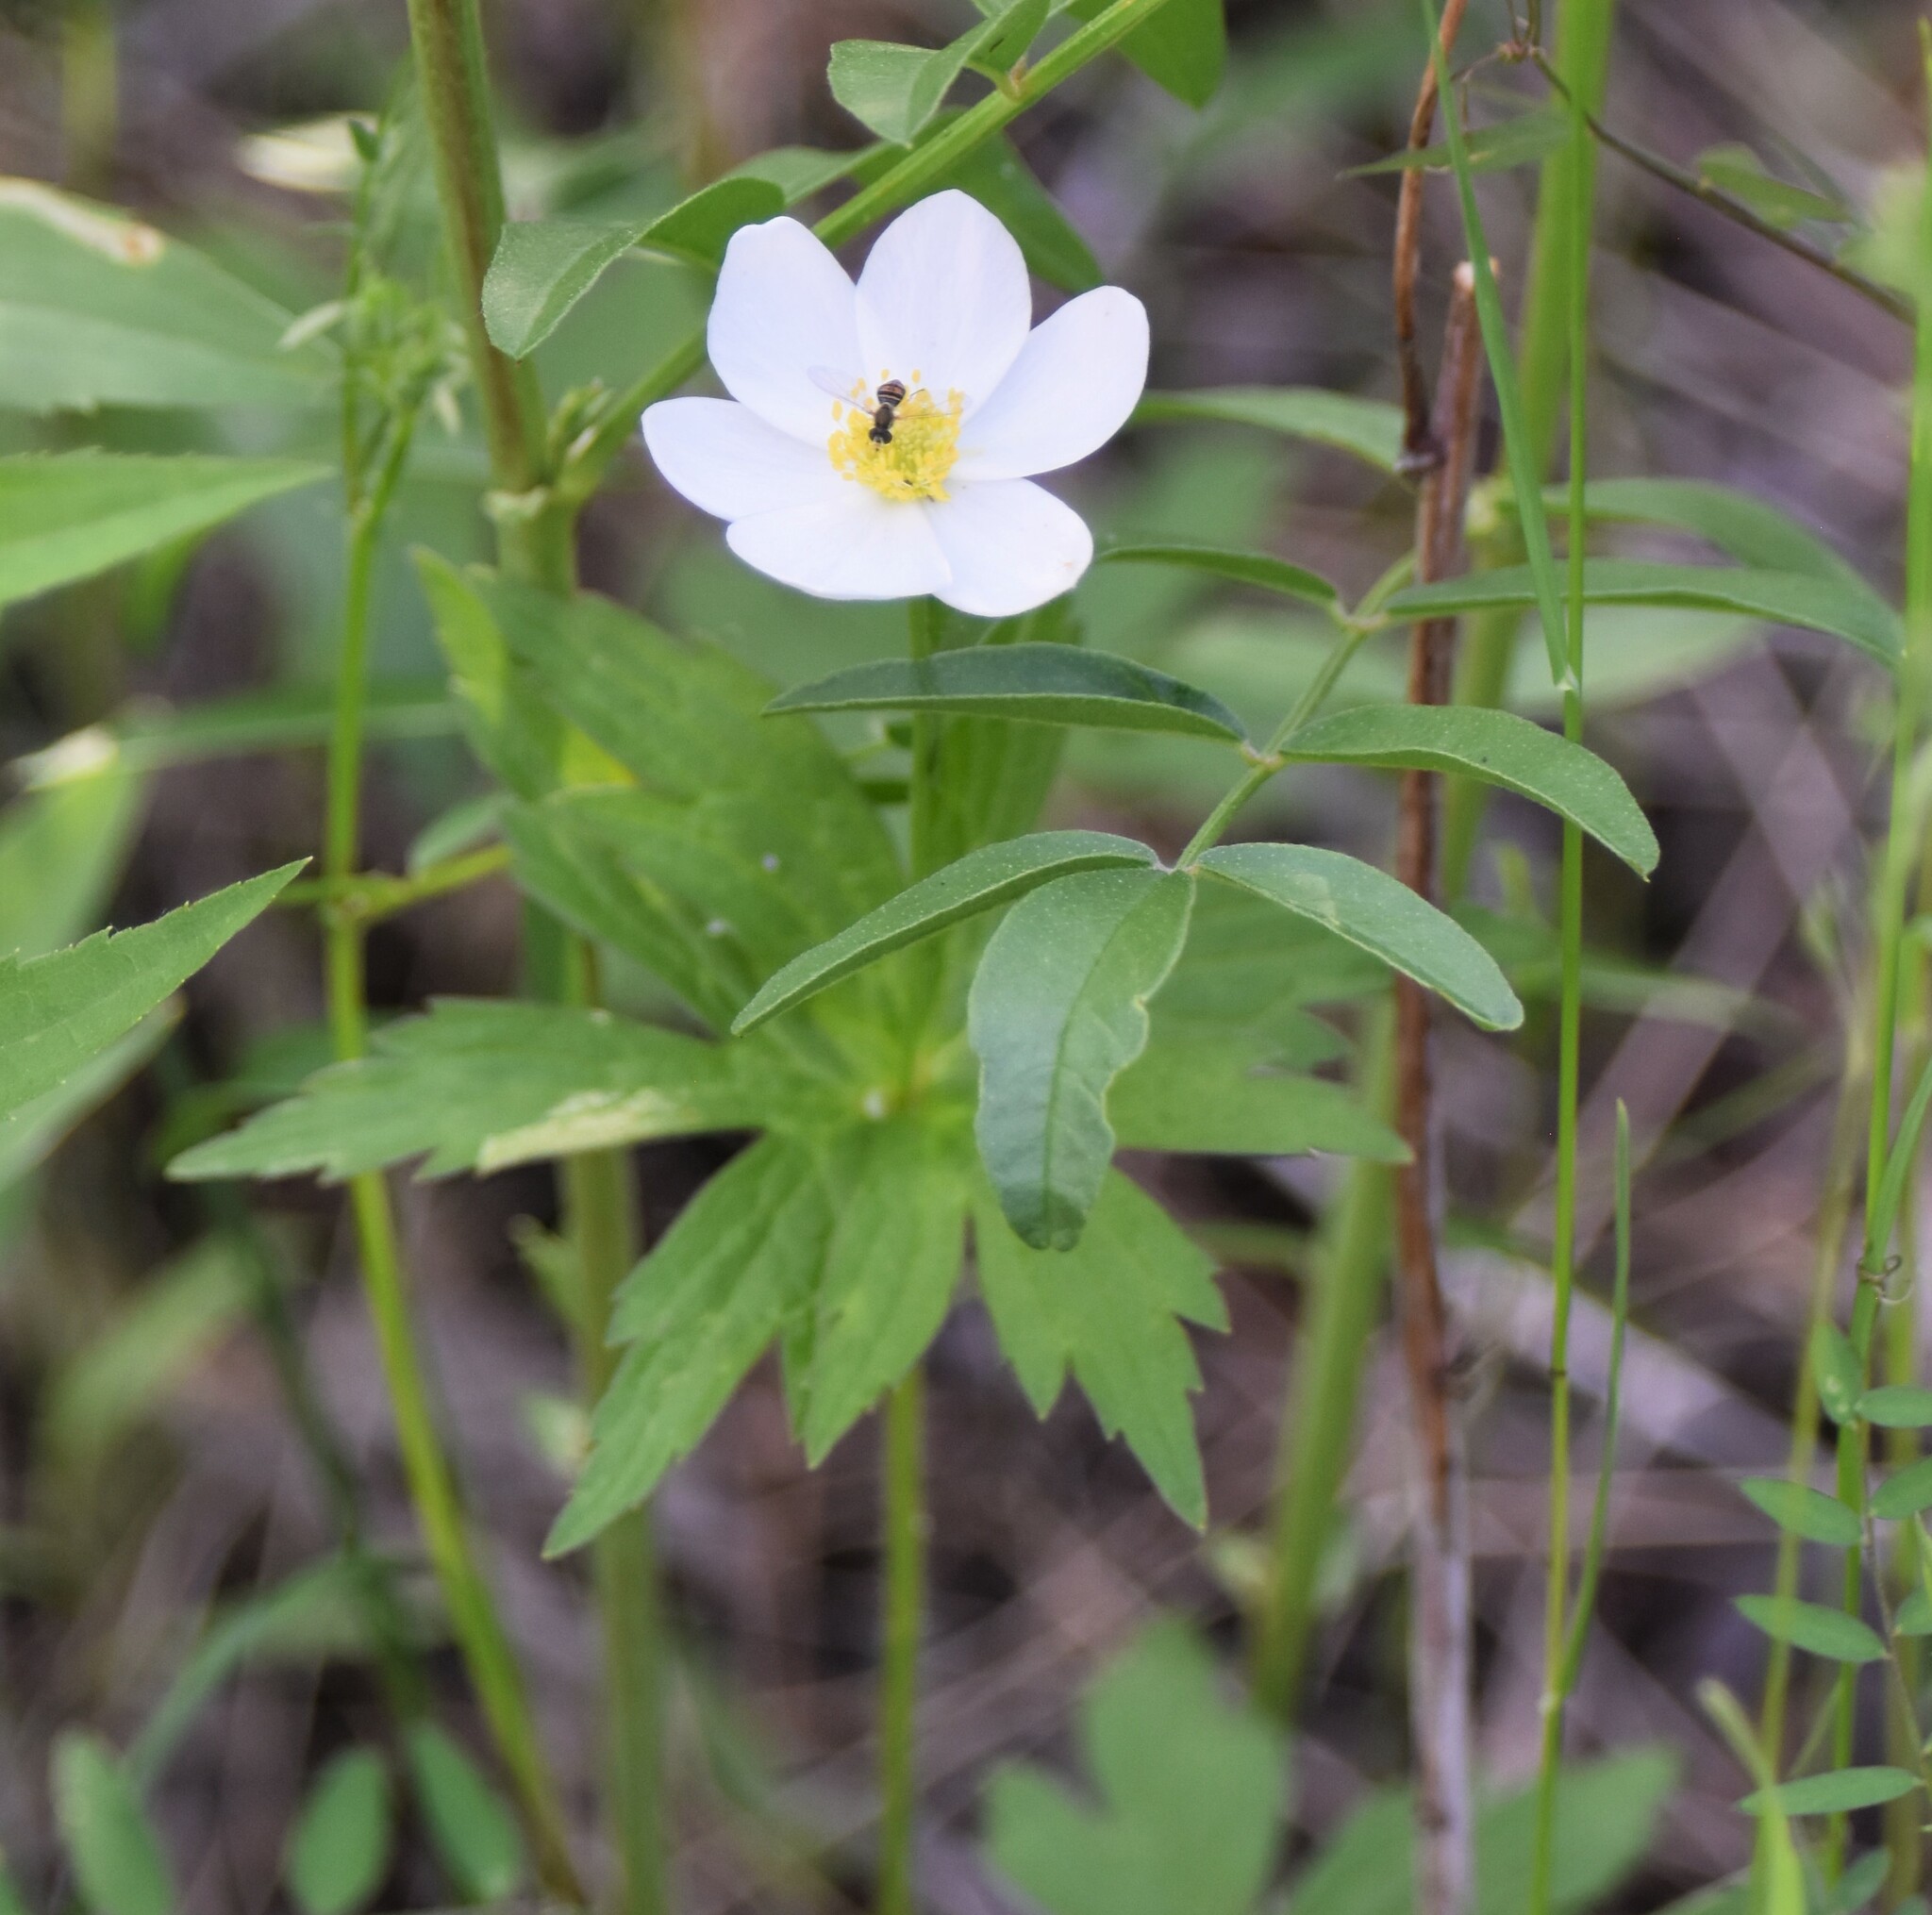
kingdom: Plantae
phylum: Tracheophyta
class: Magnoliopsida
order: Ranunculales
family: Ranunculaceae
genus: Anemonastrum
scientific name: Anemonastrum canadense
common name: Canada anemone
